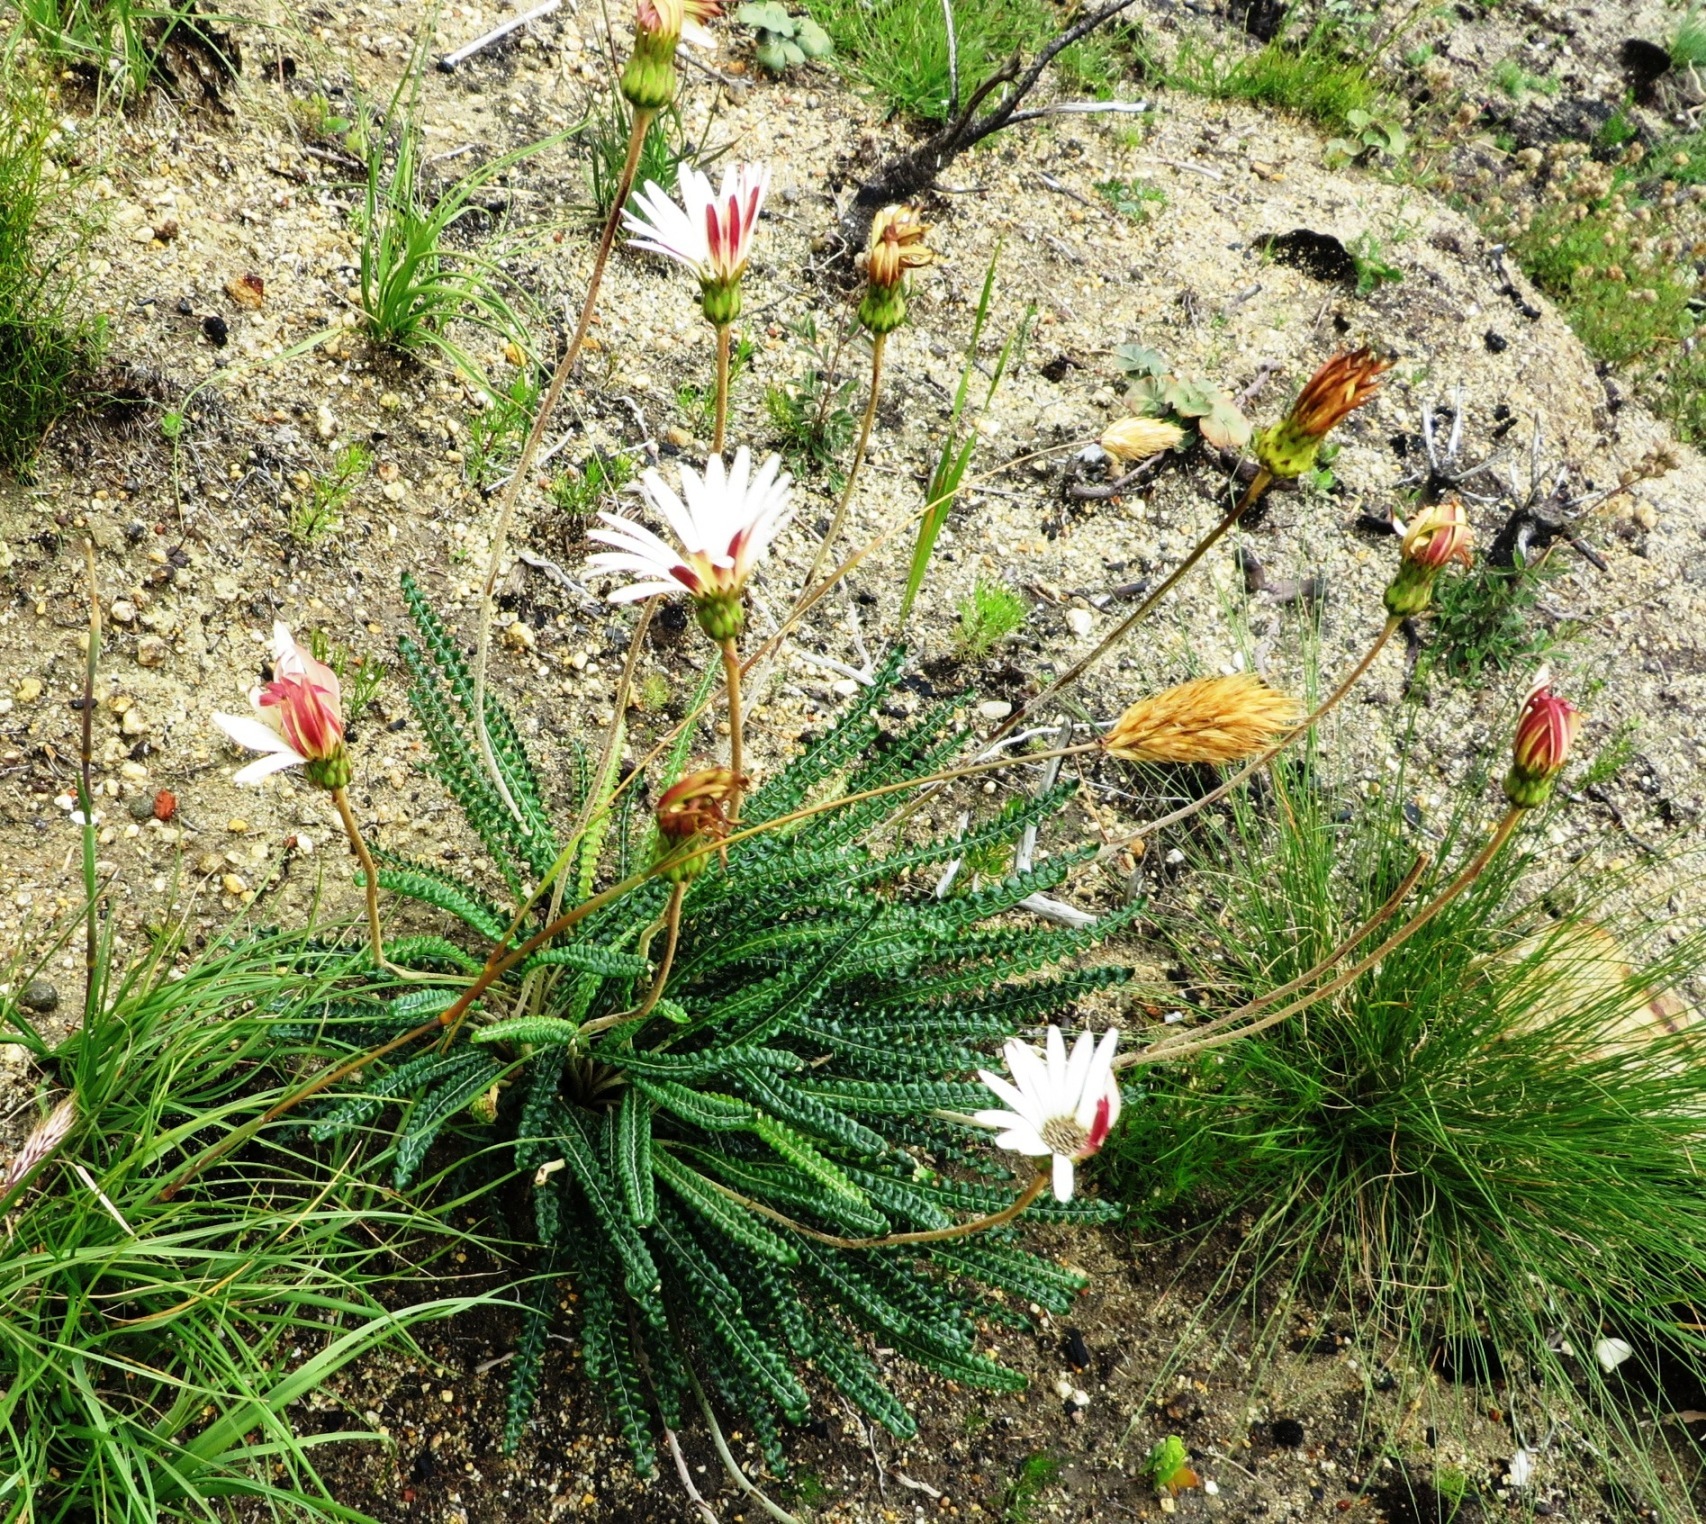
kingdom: Plantae
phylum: Tracheophyta
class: Magnoliopsida
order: Asterales
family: Asteraceae
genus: Gerbera
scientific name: Gerbera linnaei
